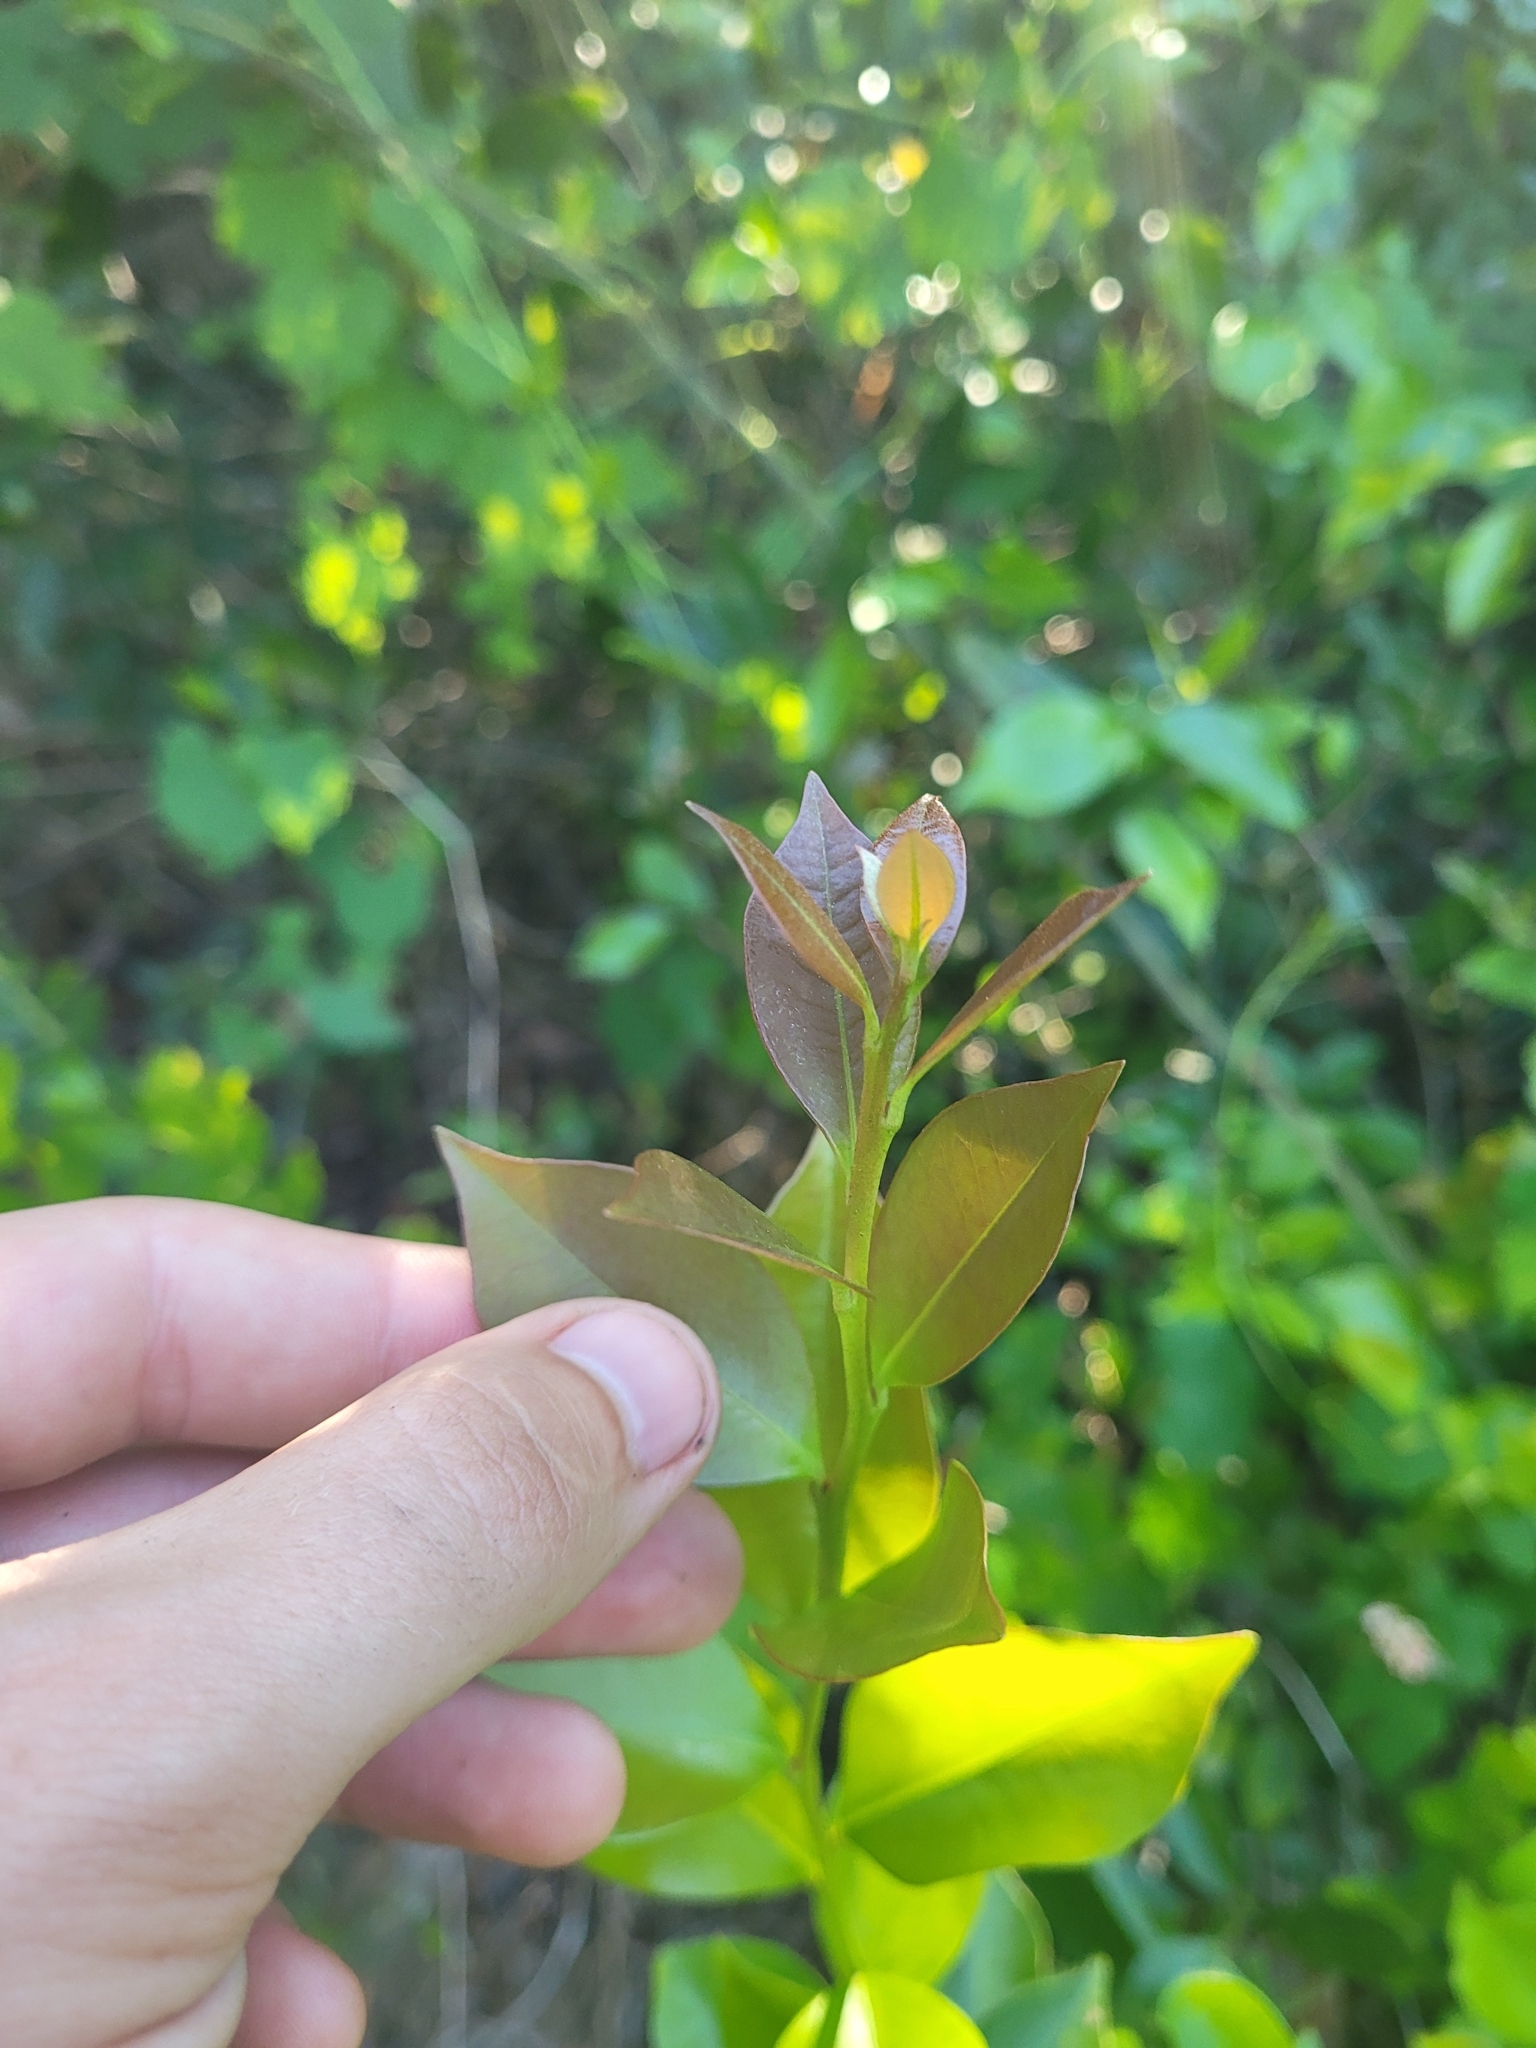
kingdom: Plantae
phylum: Tracheophyta
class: Magnoliopsida
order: Ericales
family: Ericaceae
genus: Lyonia
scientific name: Lyonia lucida
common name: Fetterbush
